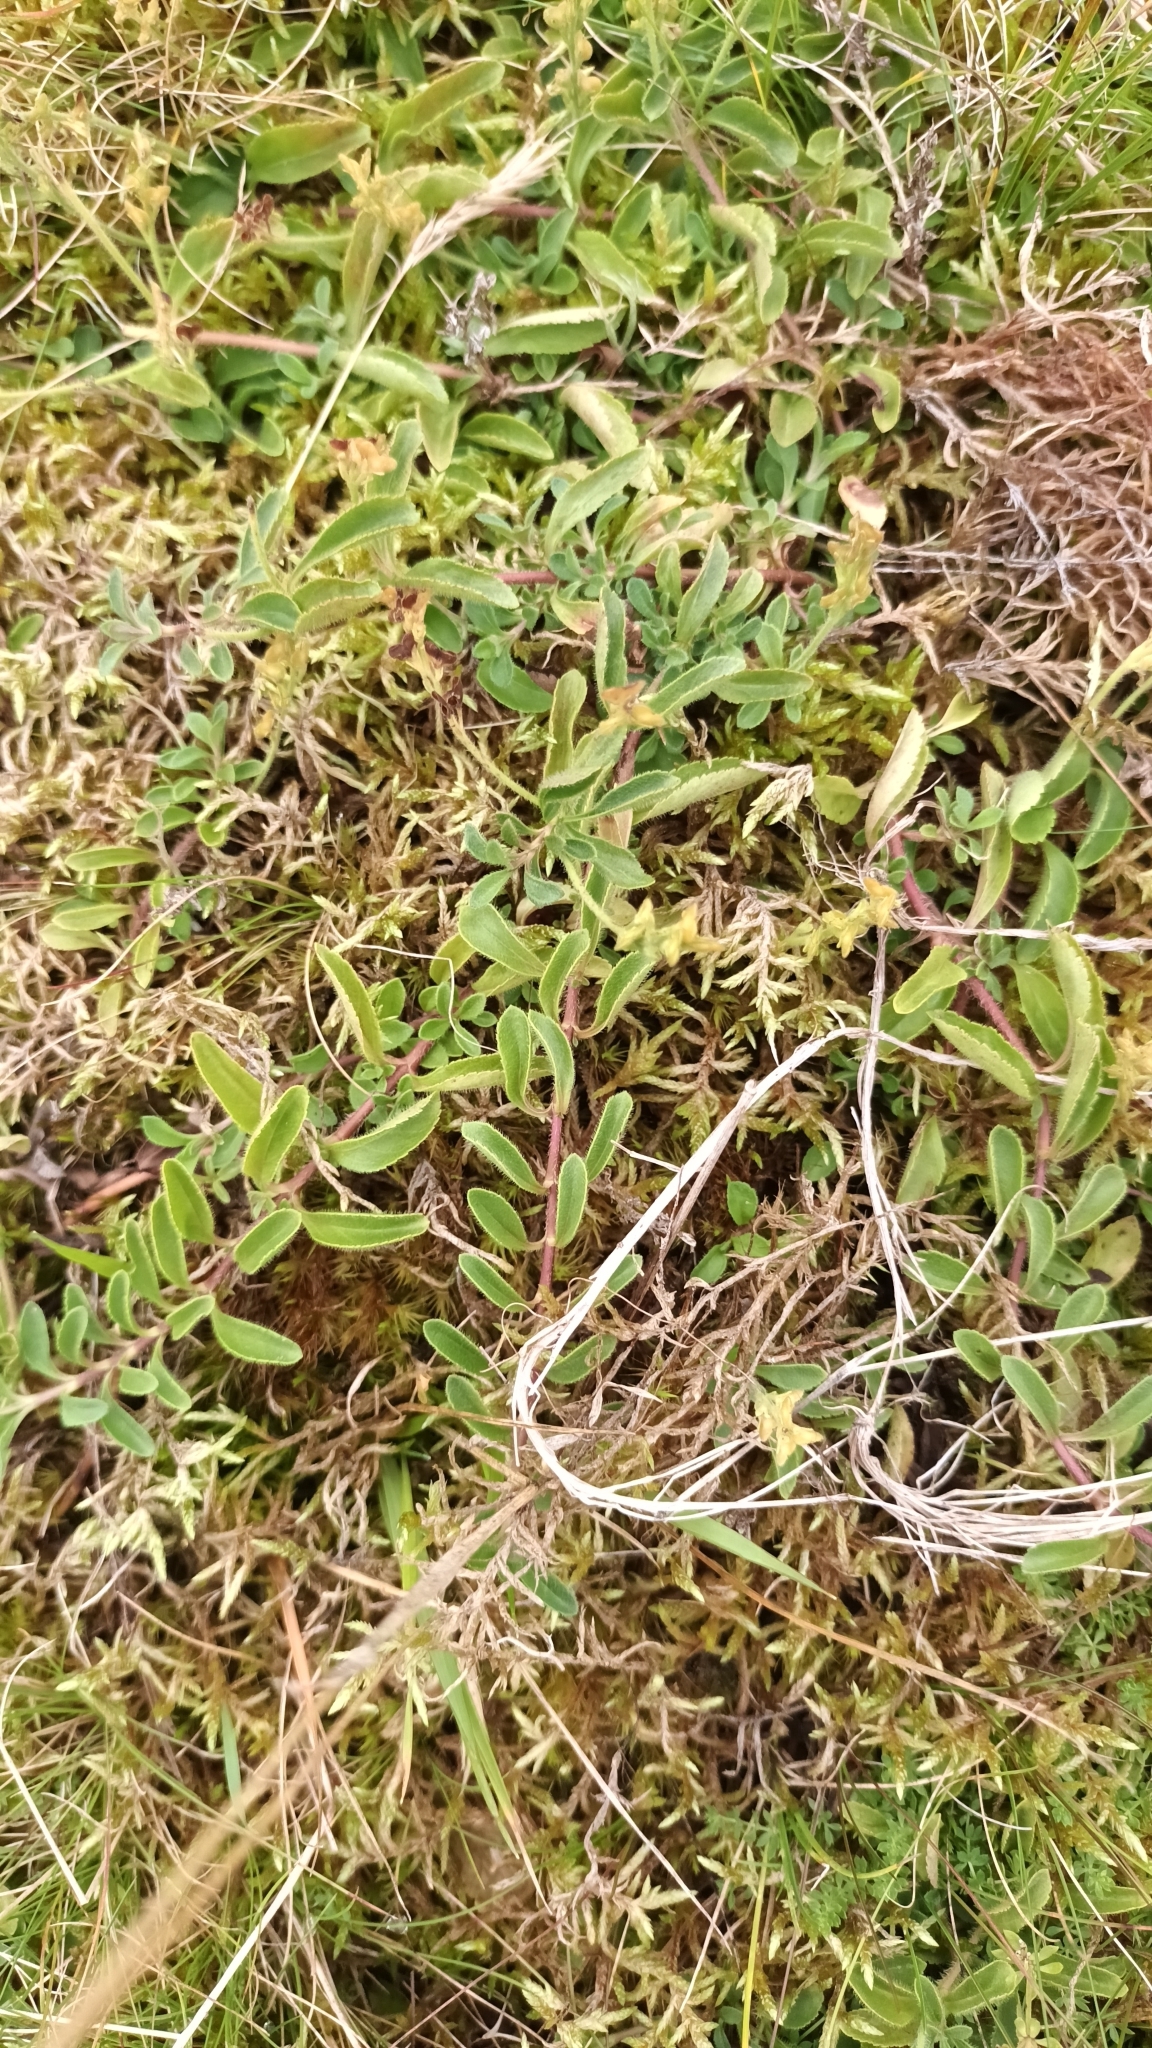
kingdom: Plantae
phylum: Tracheophyta
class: Magnoliopsida
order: Lamiales
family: Plantaginaceae
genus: Veronica
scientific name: Veronica officinalis
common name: Common speedwell
